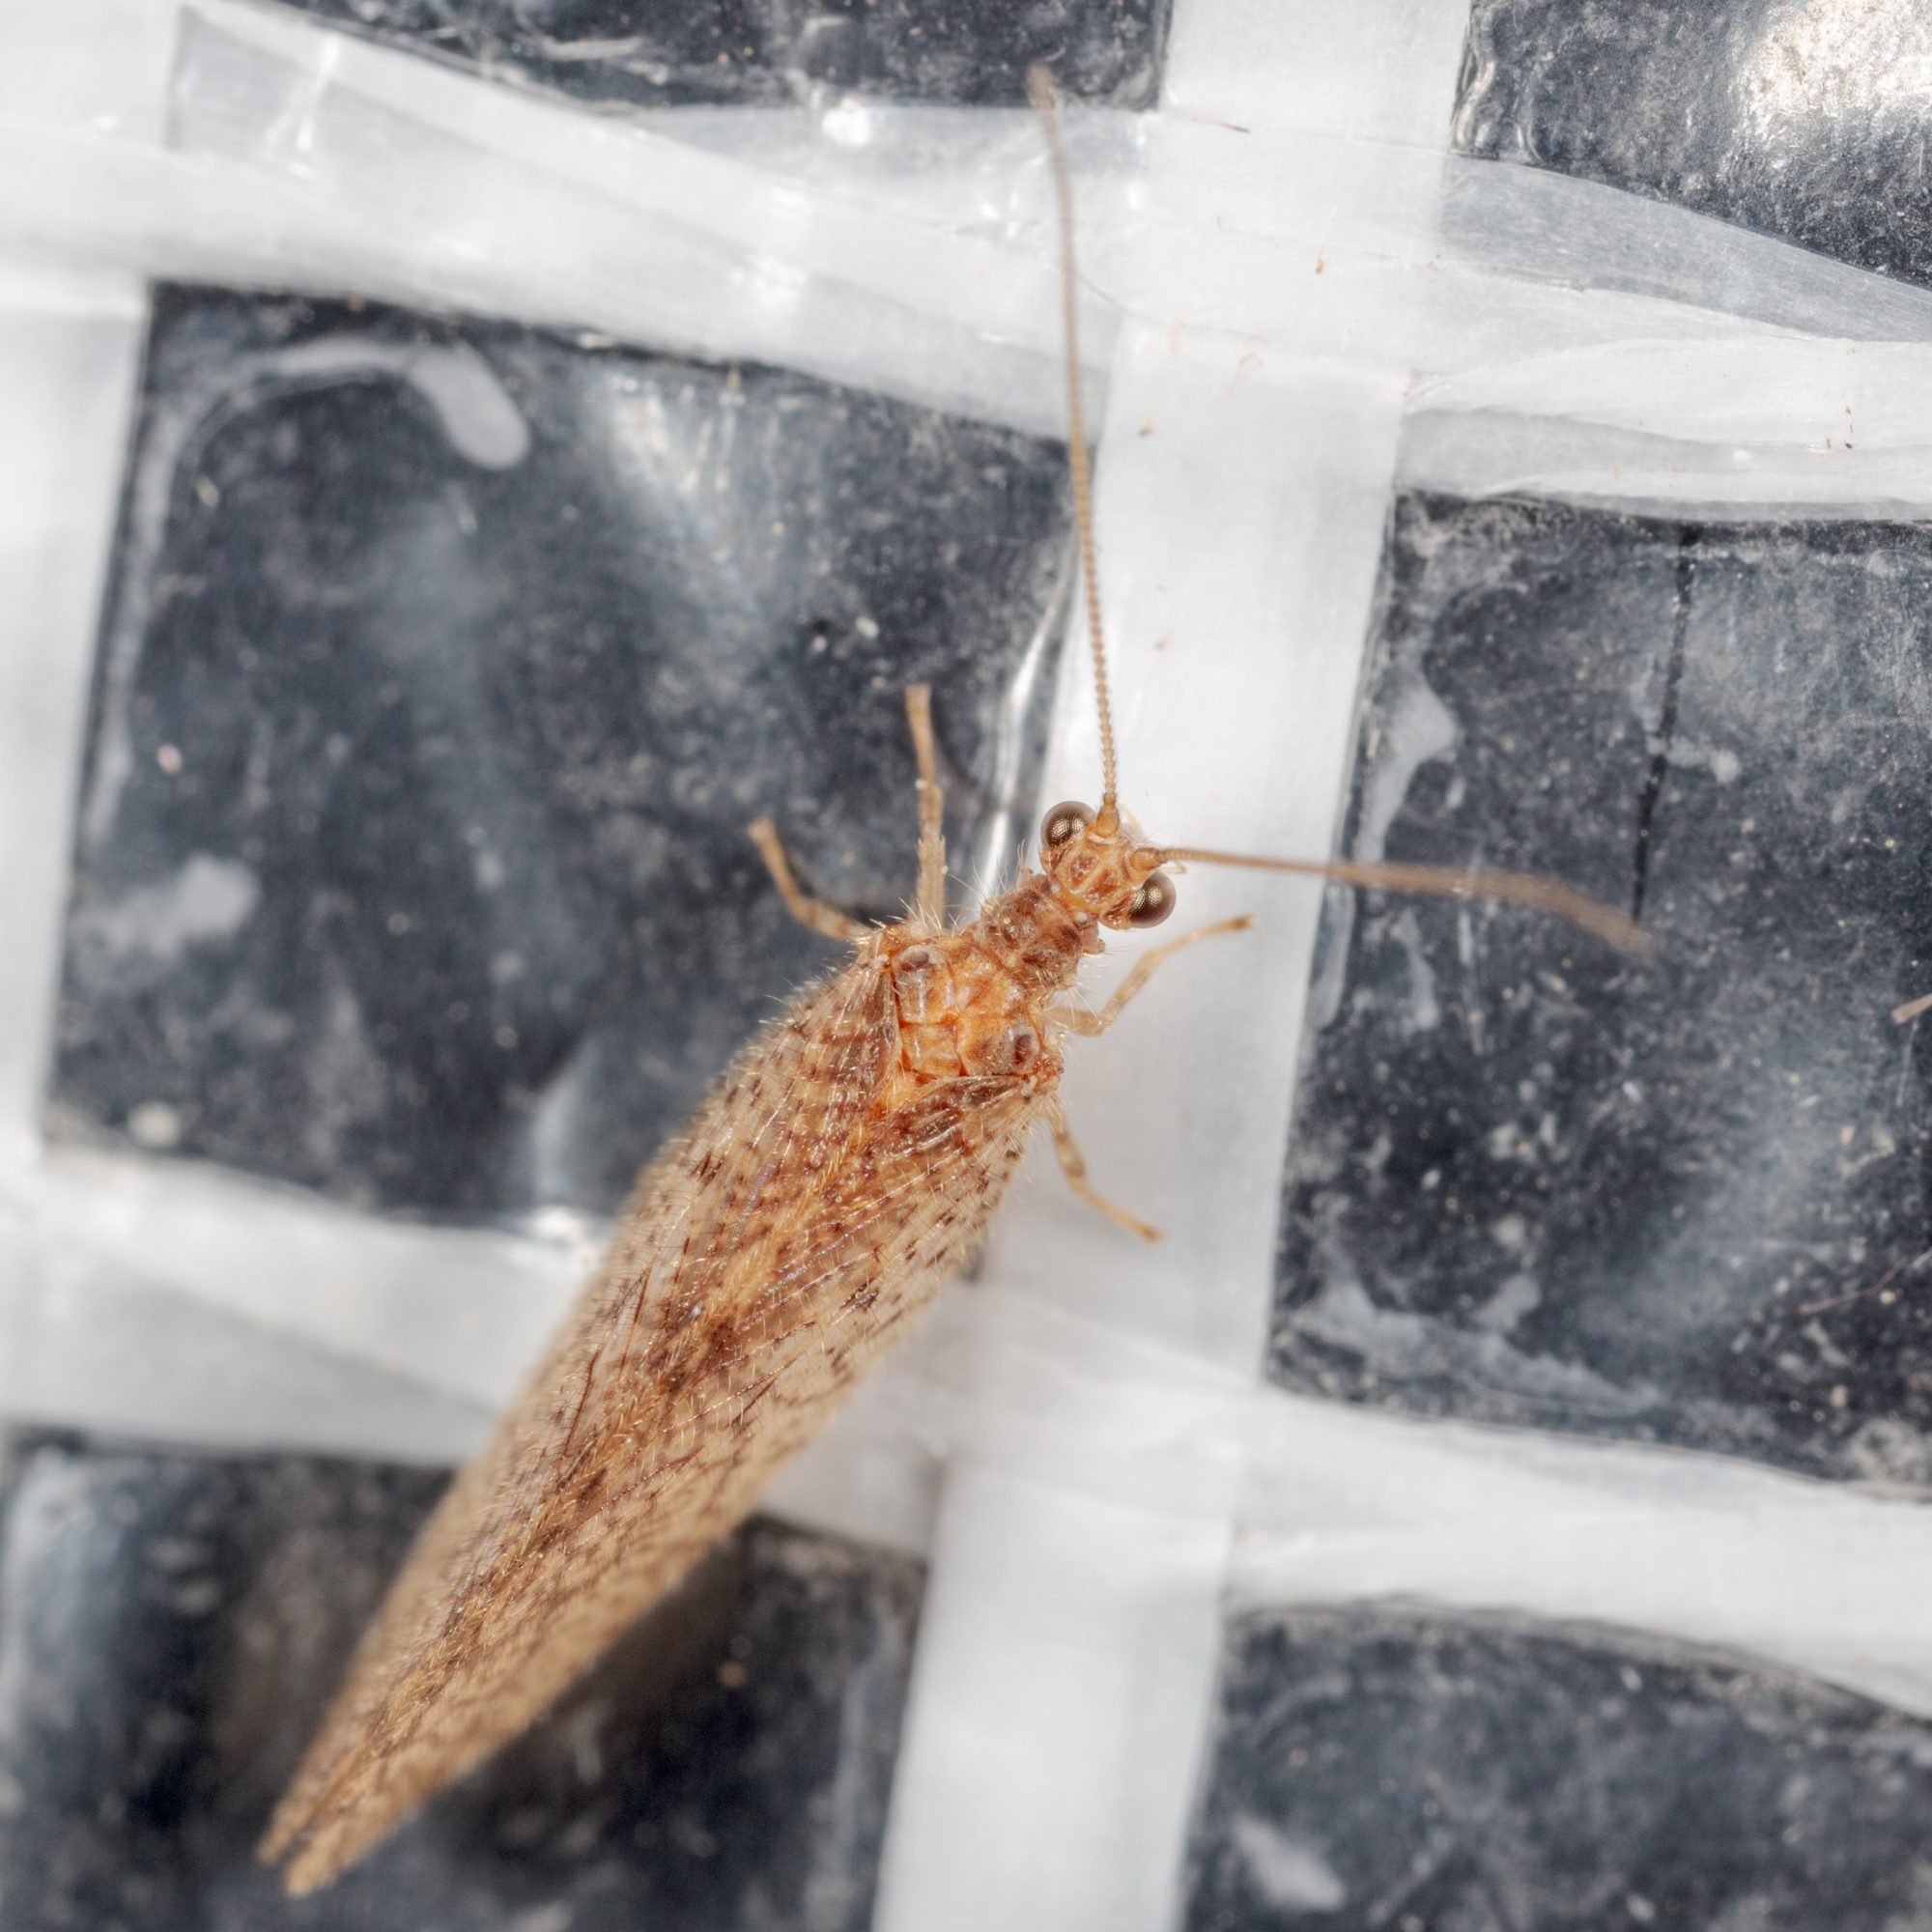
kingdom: Animalia
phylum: Arthropoda
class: Insecta
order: Neuroptera
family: Hemerobiidae
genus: Micromus
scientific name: Micromus posticus
